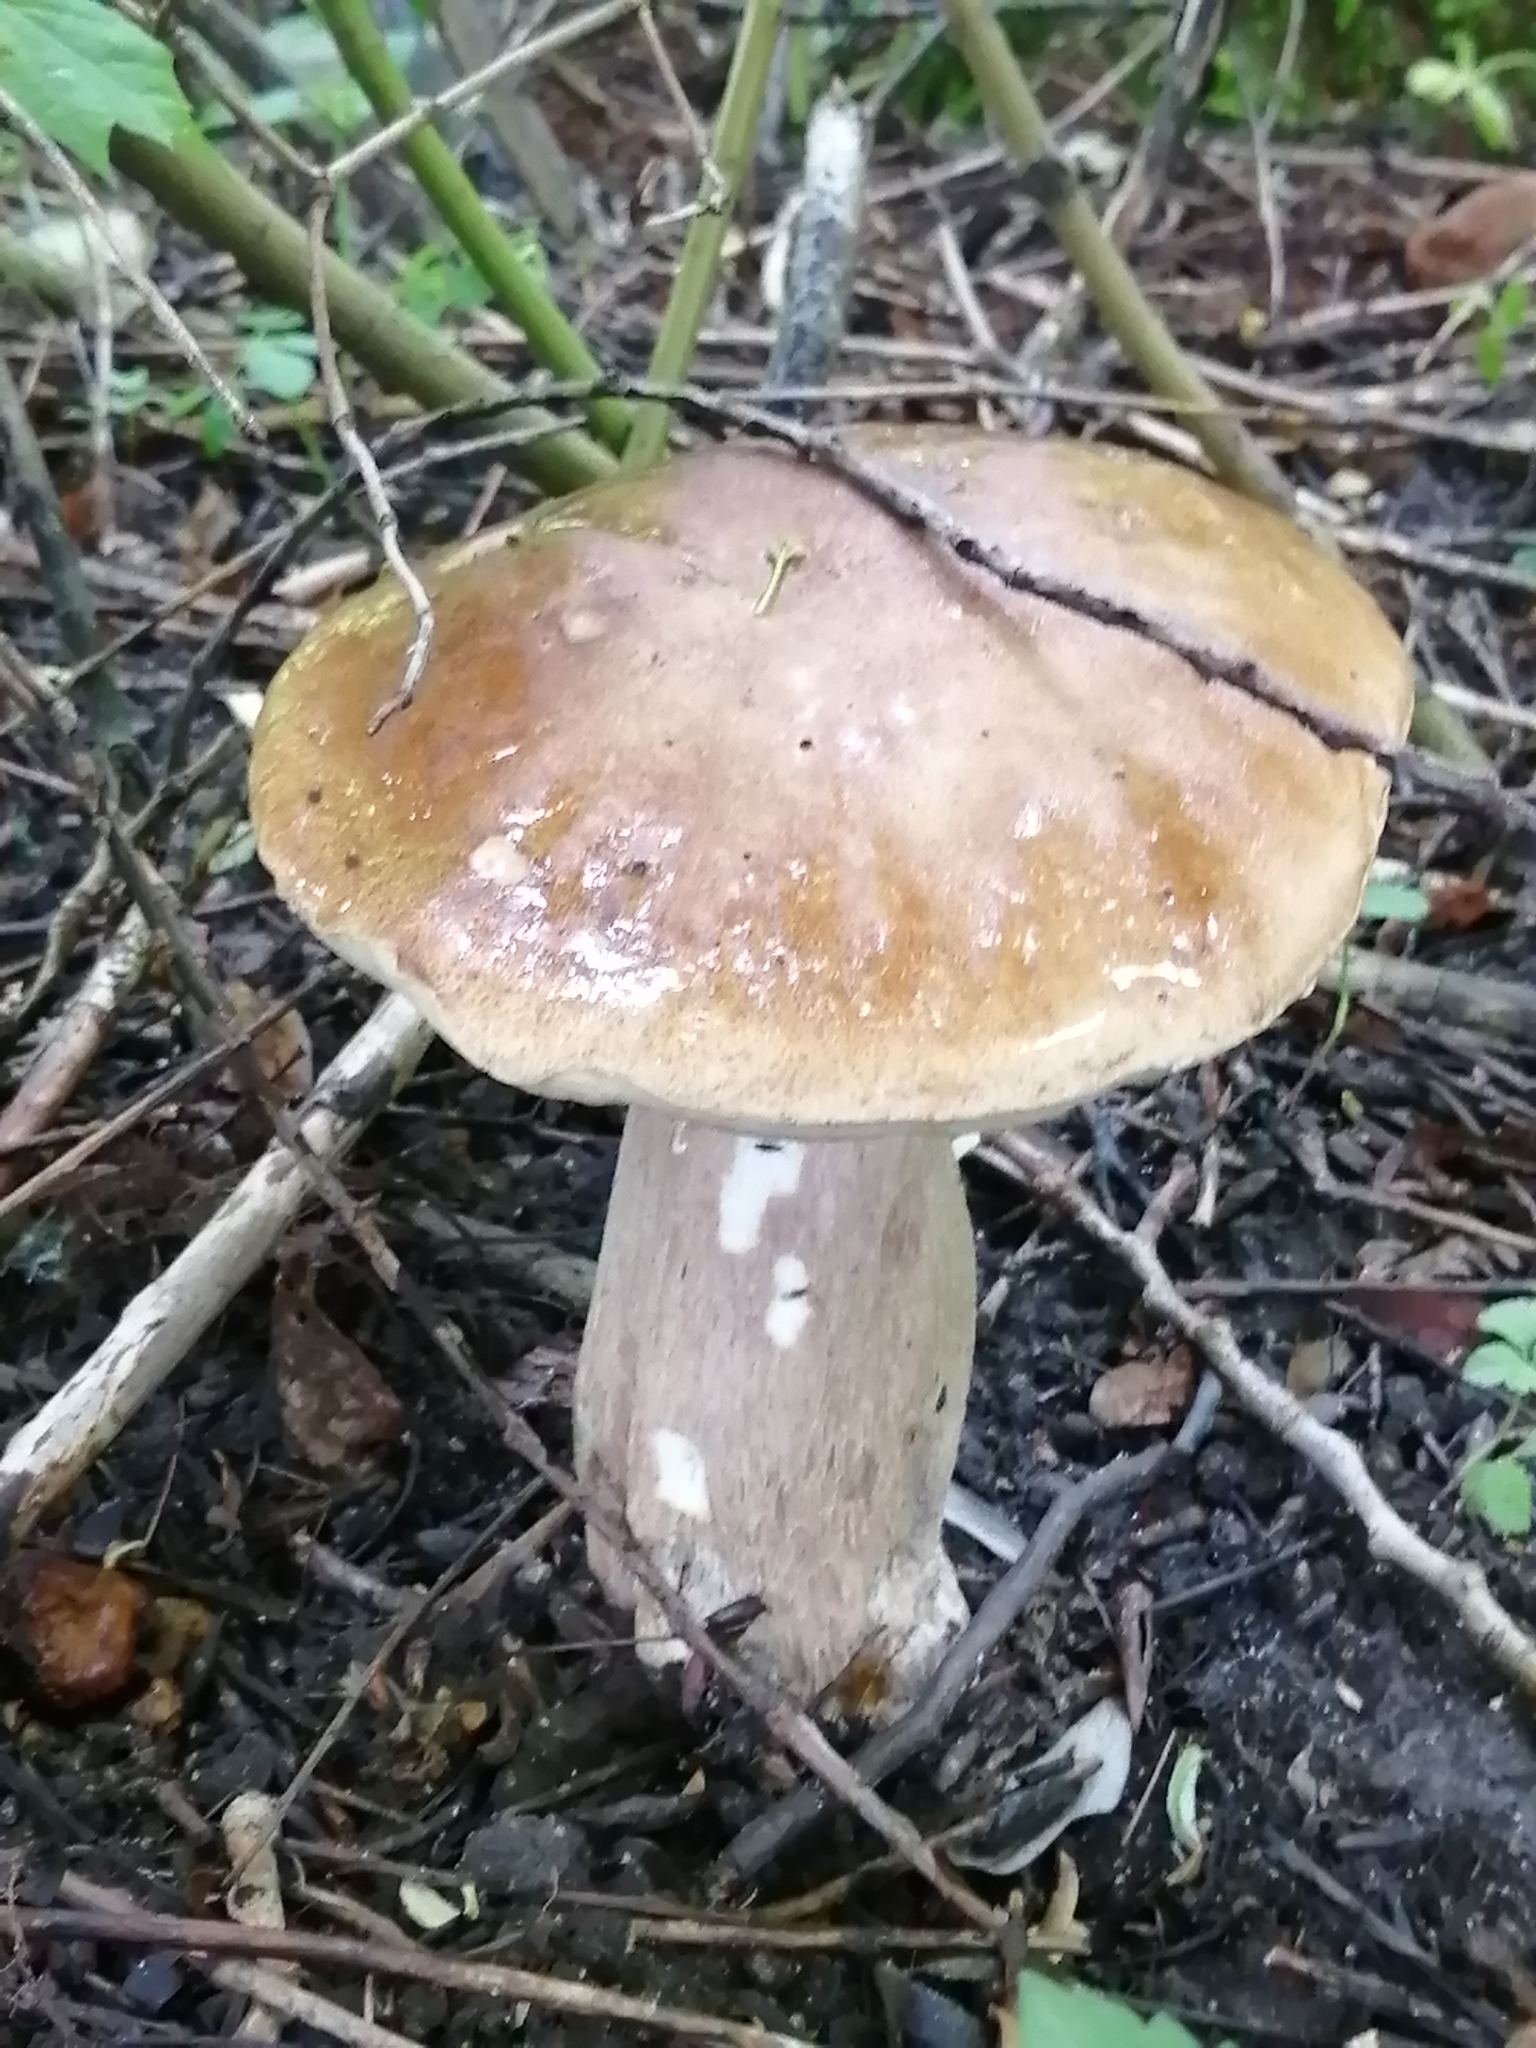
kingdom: Fungi
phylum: Basidiomycota
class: Agaricomycetes
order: Boletales
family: Boletaceae
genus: Boletus
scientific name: Boletus edulis
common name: Cep
